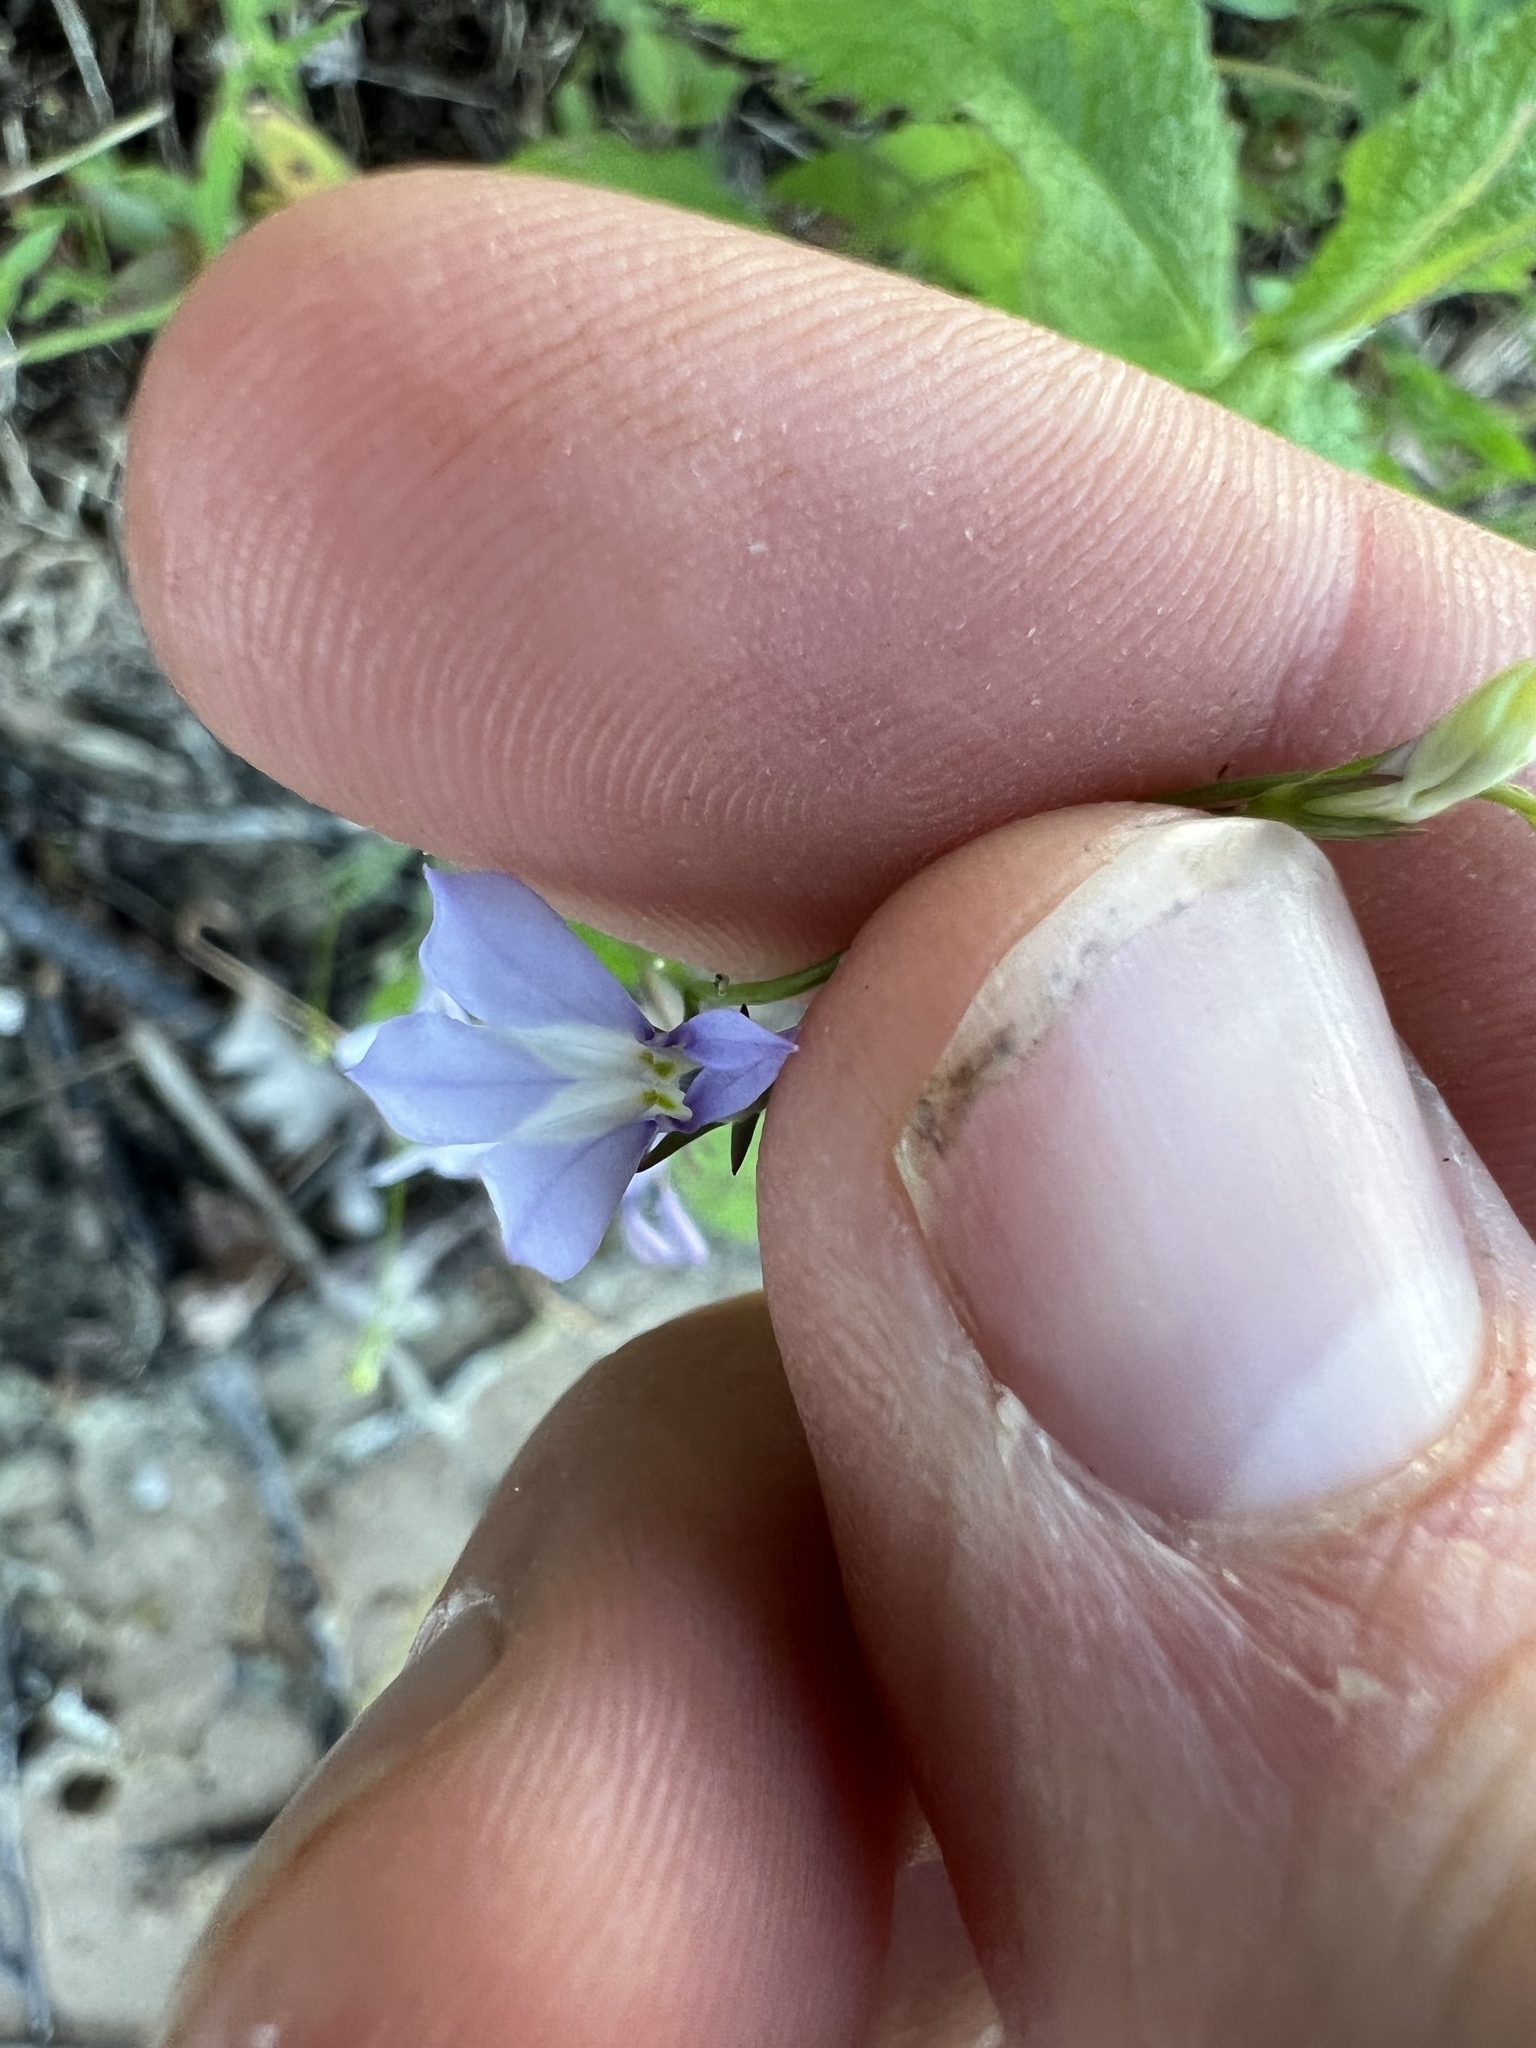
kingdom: Plantae
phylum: Tracheophyta
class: Magnoliopsida
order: Asterales
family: Campanulaceae
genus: Lobelia
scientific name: Lobelia kalmii
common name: Kalm's lobelia
